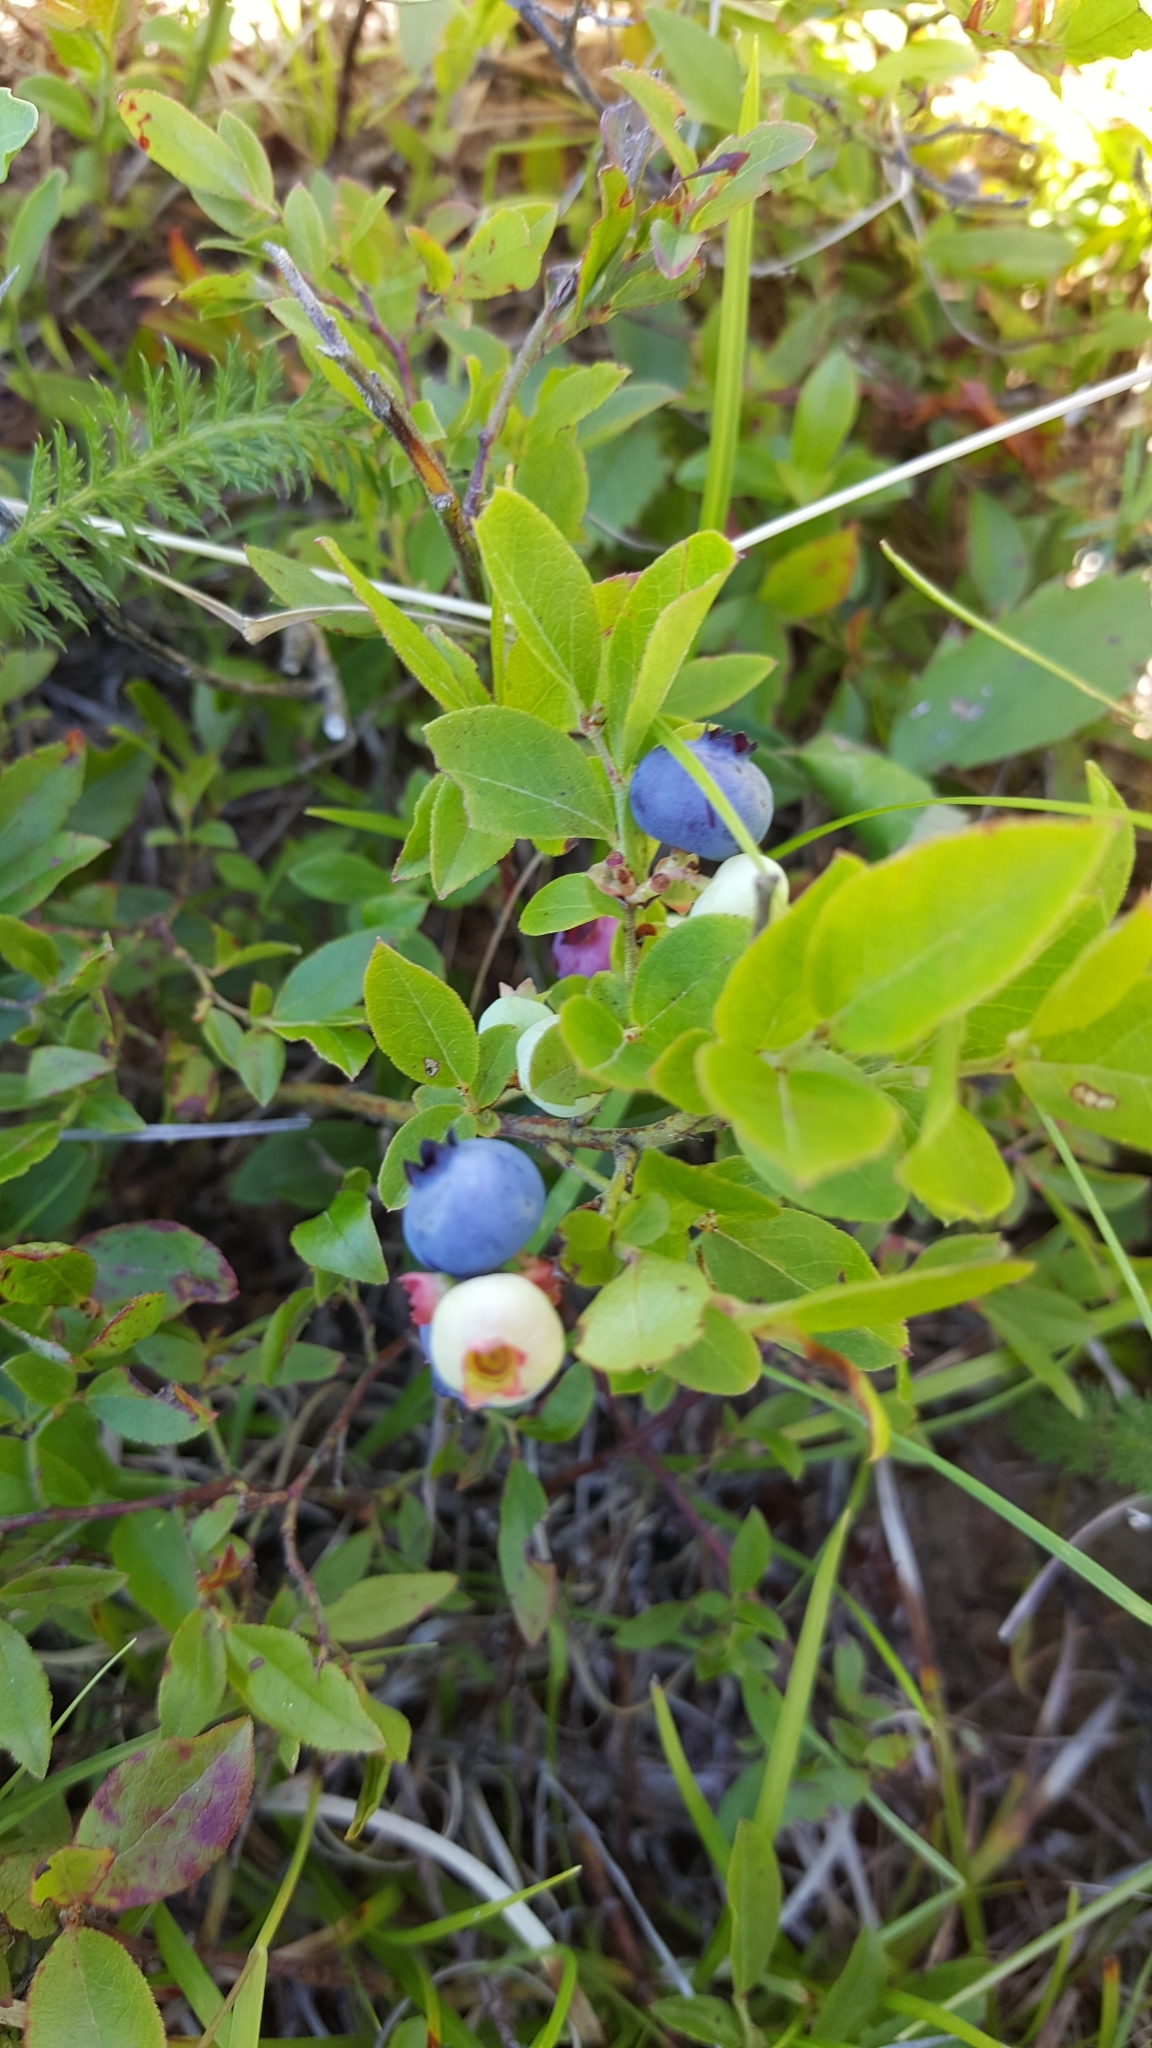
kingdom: Plantae
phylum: Tracheophyta
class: Magnoliopsida
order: Ericales
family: Ericaceae
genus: Vaccinium
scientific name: Vaccinium angustifolium
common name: Early lowbush blueberry
